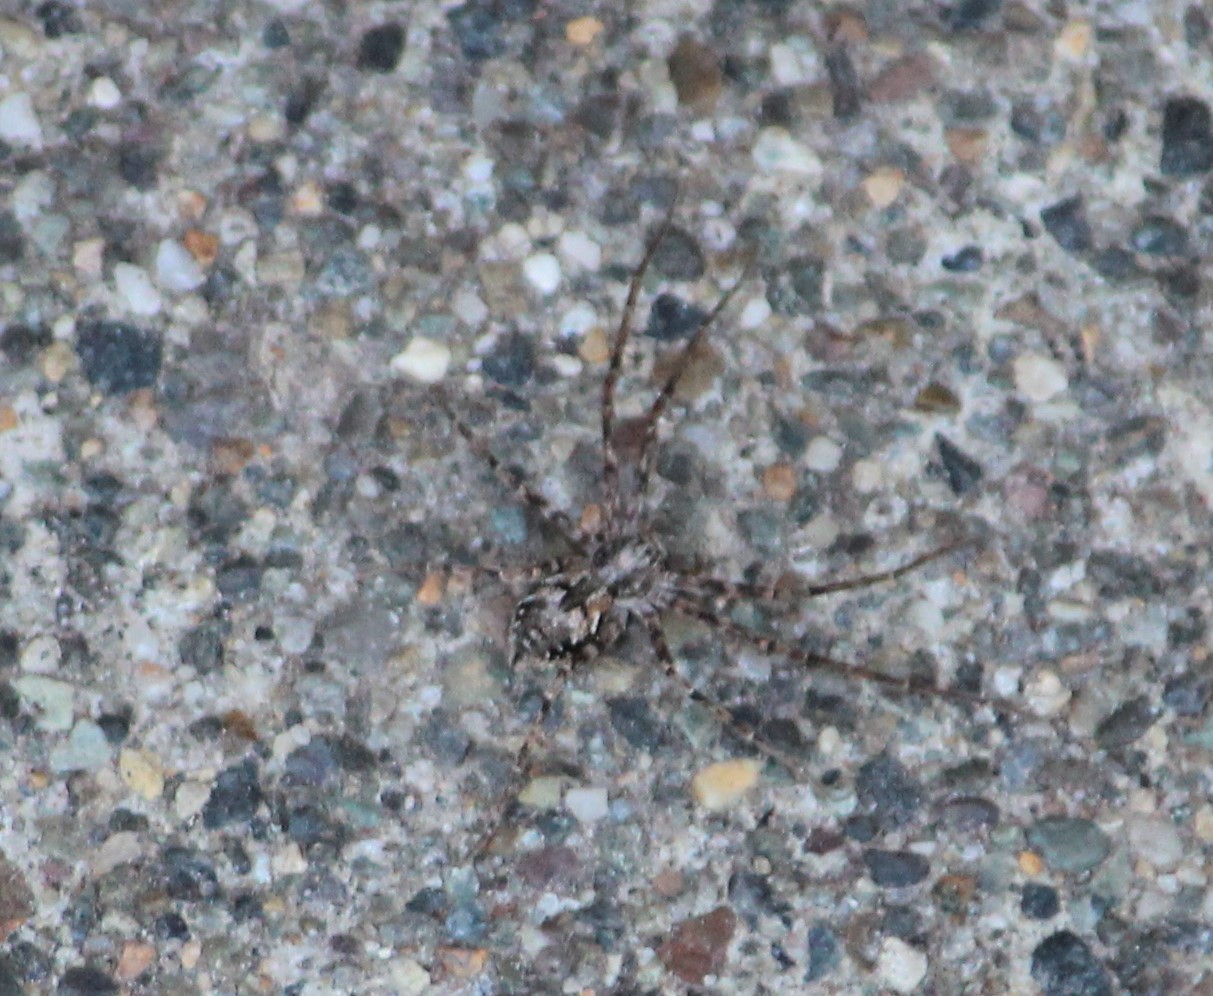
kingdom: Animalia
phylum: Arthropoda
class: Arachnida
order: Araneae
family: Philodromidae
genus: Rhysodromus
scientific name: Rhysodromus alascensis
